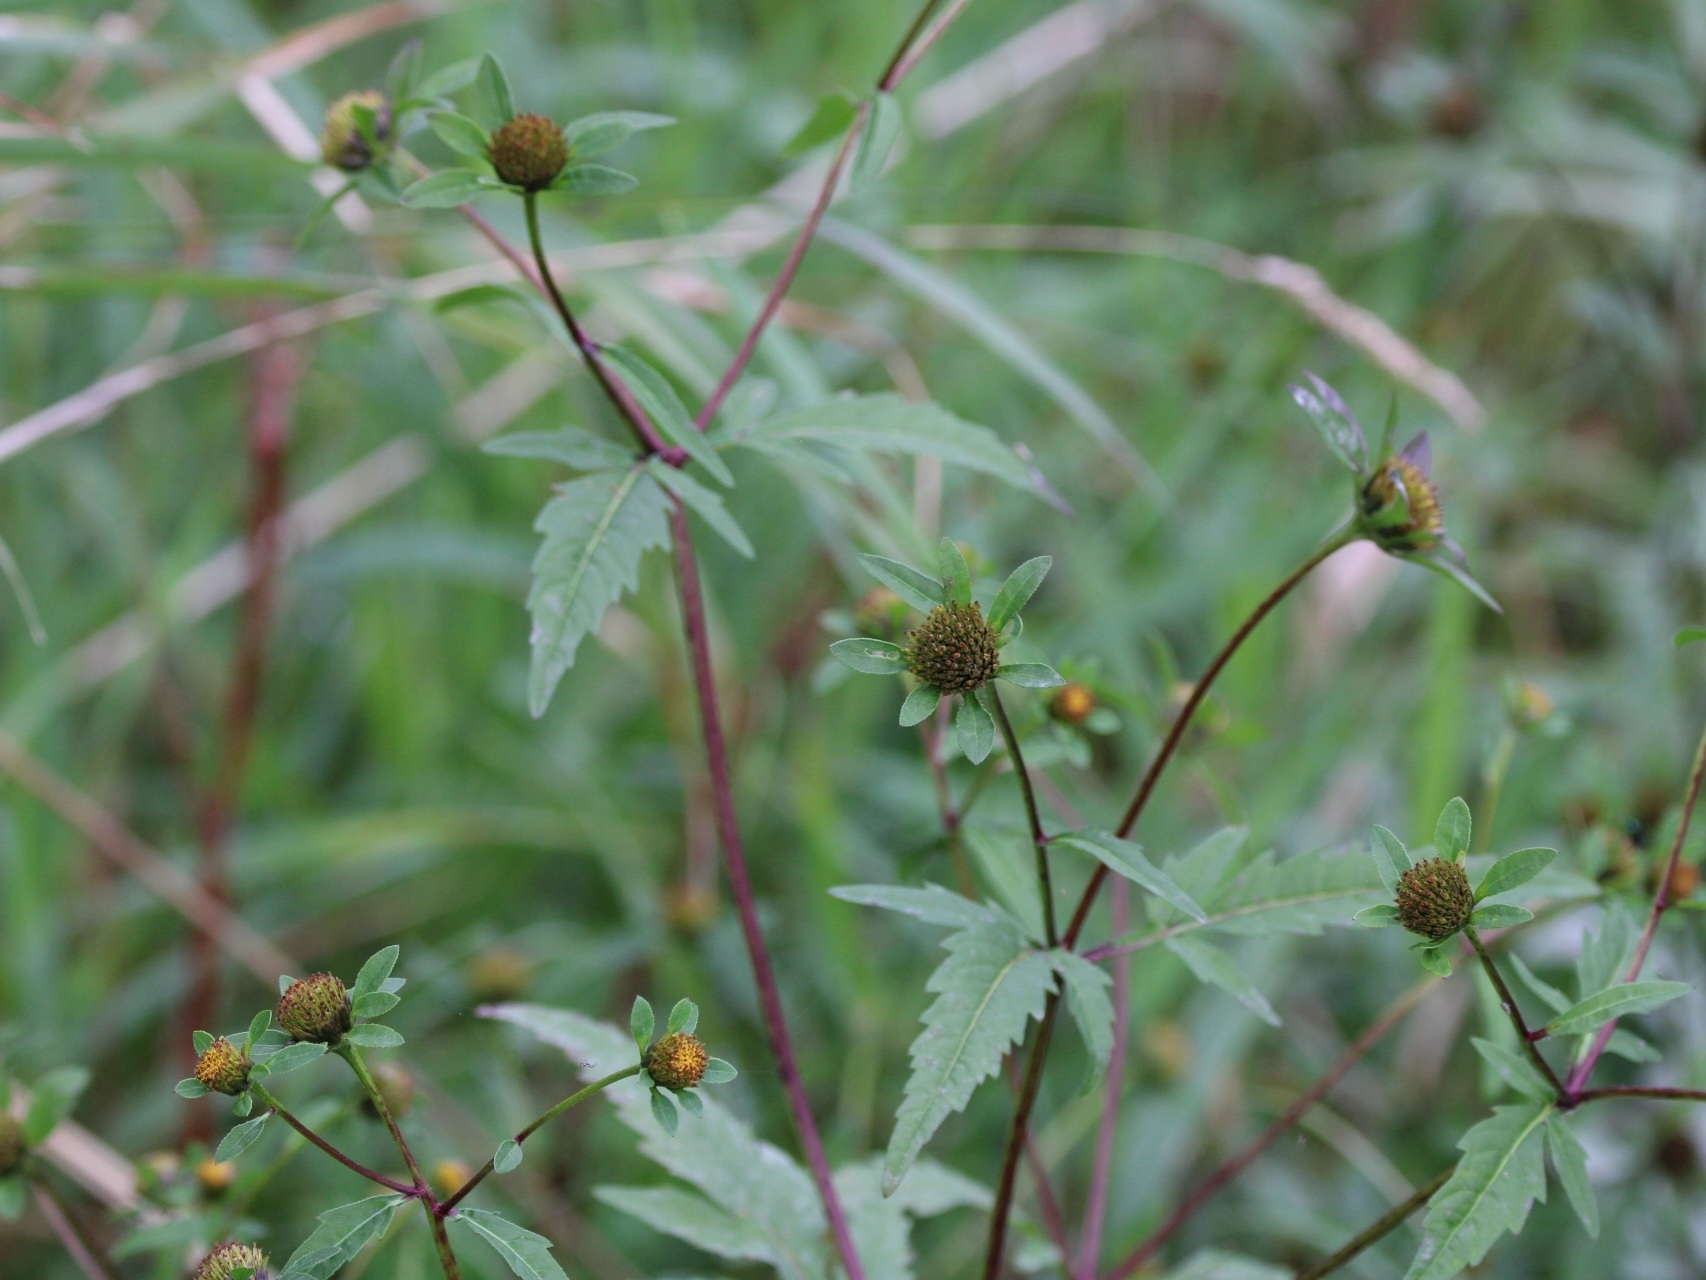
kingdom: Plantae
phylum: Tracheophyta
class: Magnoliopsida
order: Asterales
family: Asteraceae
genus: Bidens
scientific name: Bidens tripartita
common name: Trifid bur-marigold
